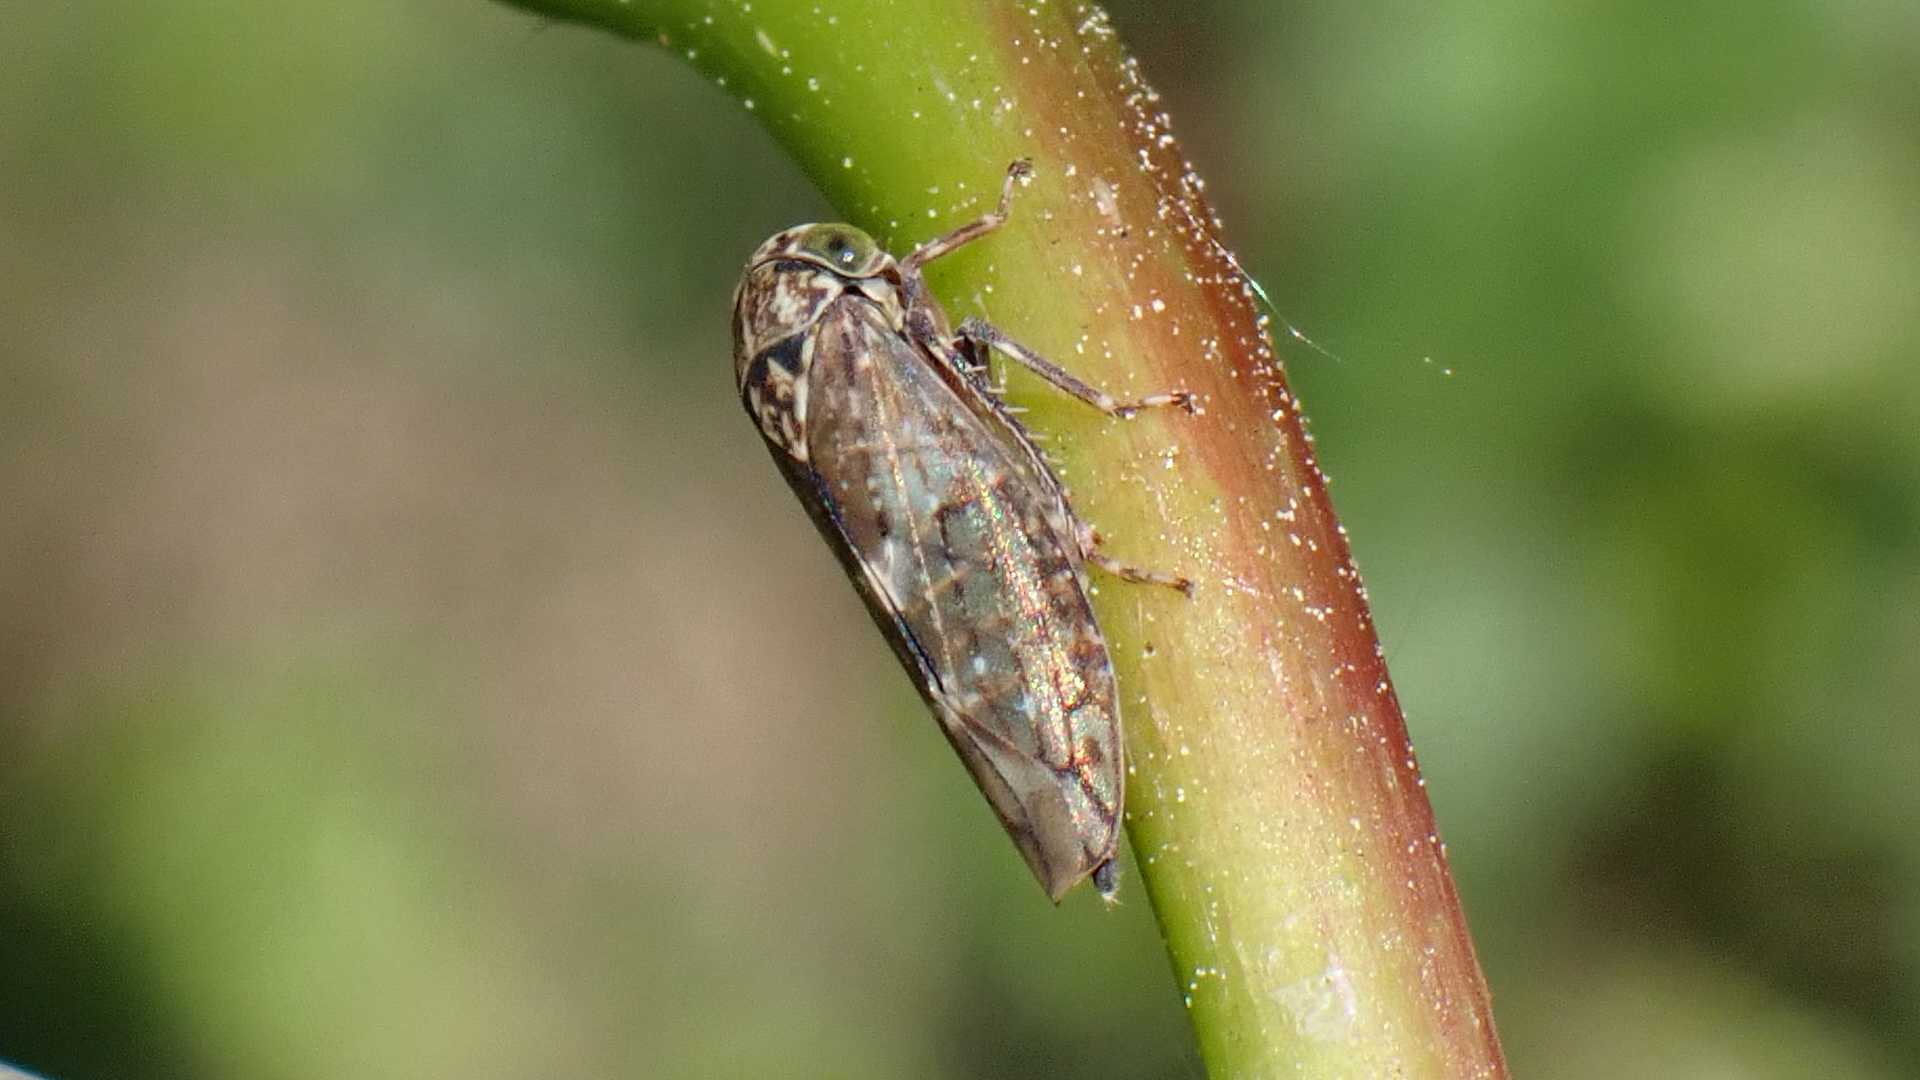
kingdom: Animalia
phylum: Arthropoda
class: Insecta
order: Hemiptera
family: Cicadellidae
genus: Acericerus
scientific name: Acericerus heydenii
